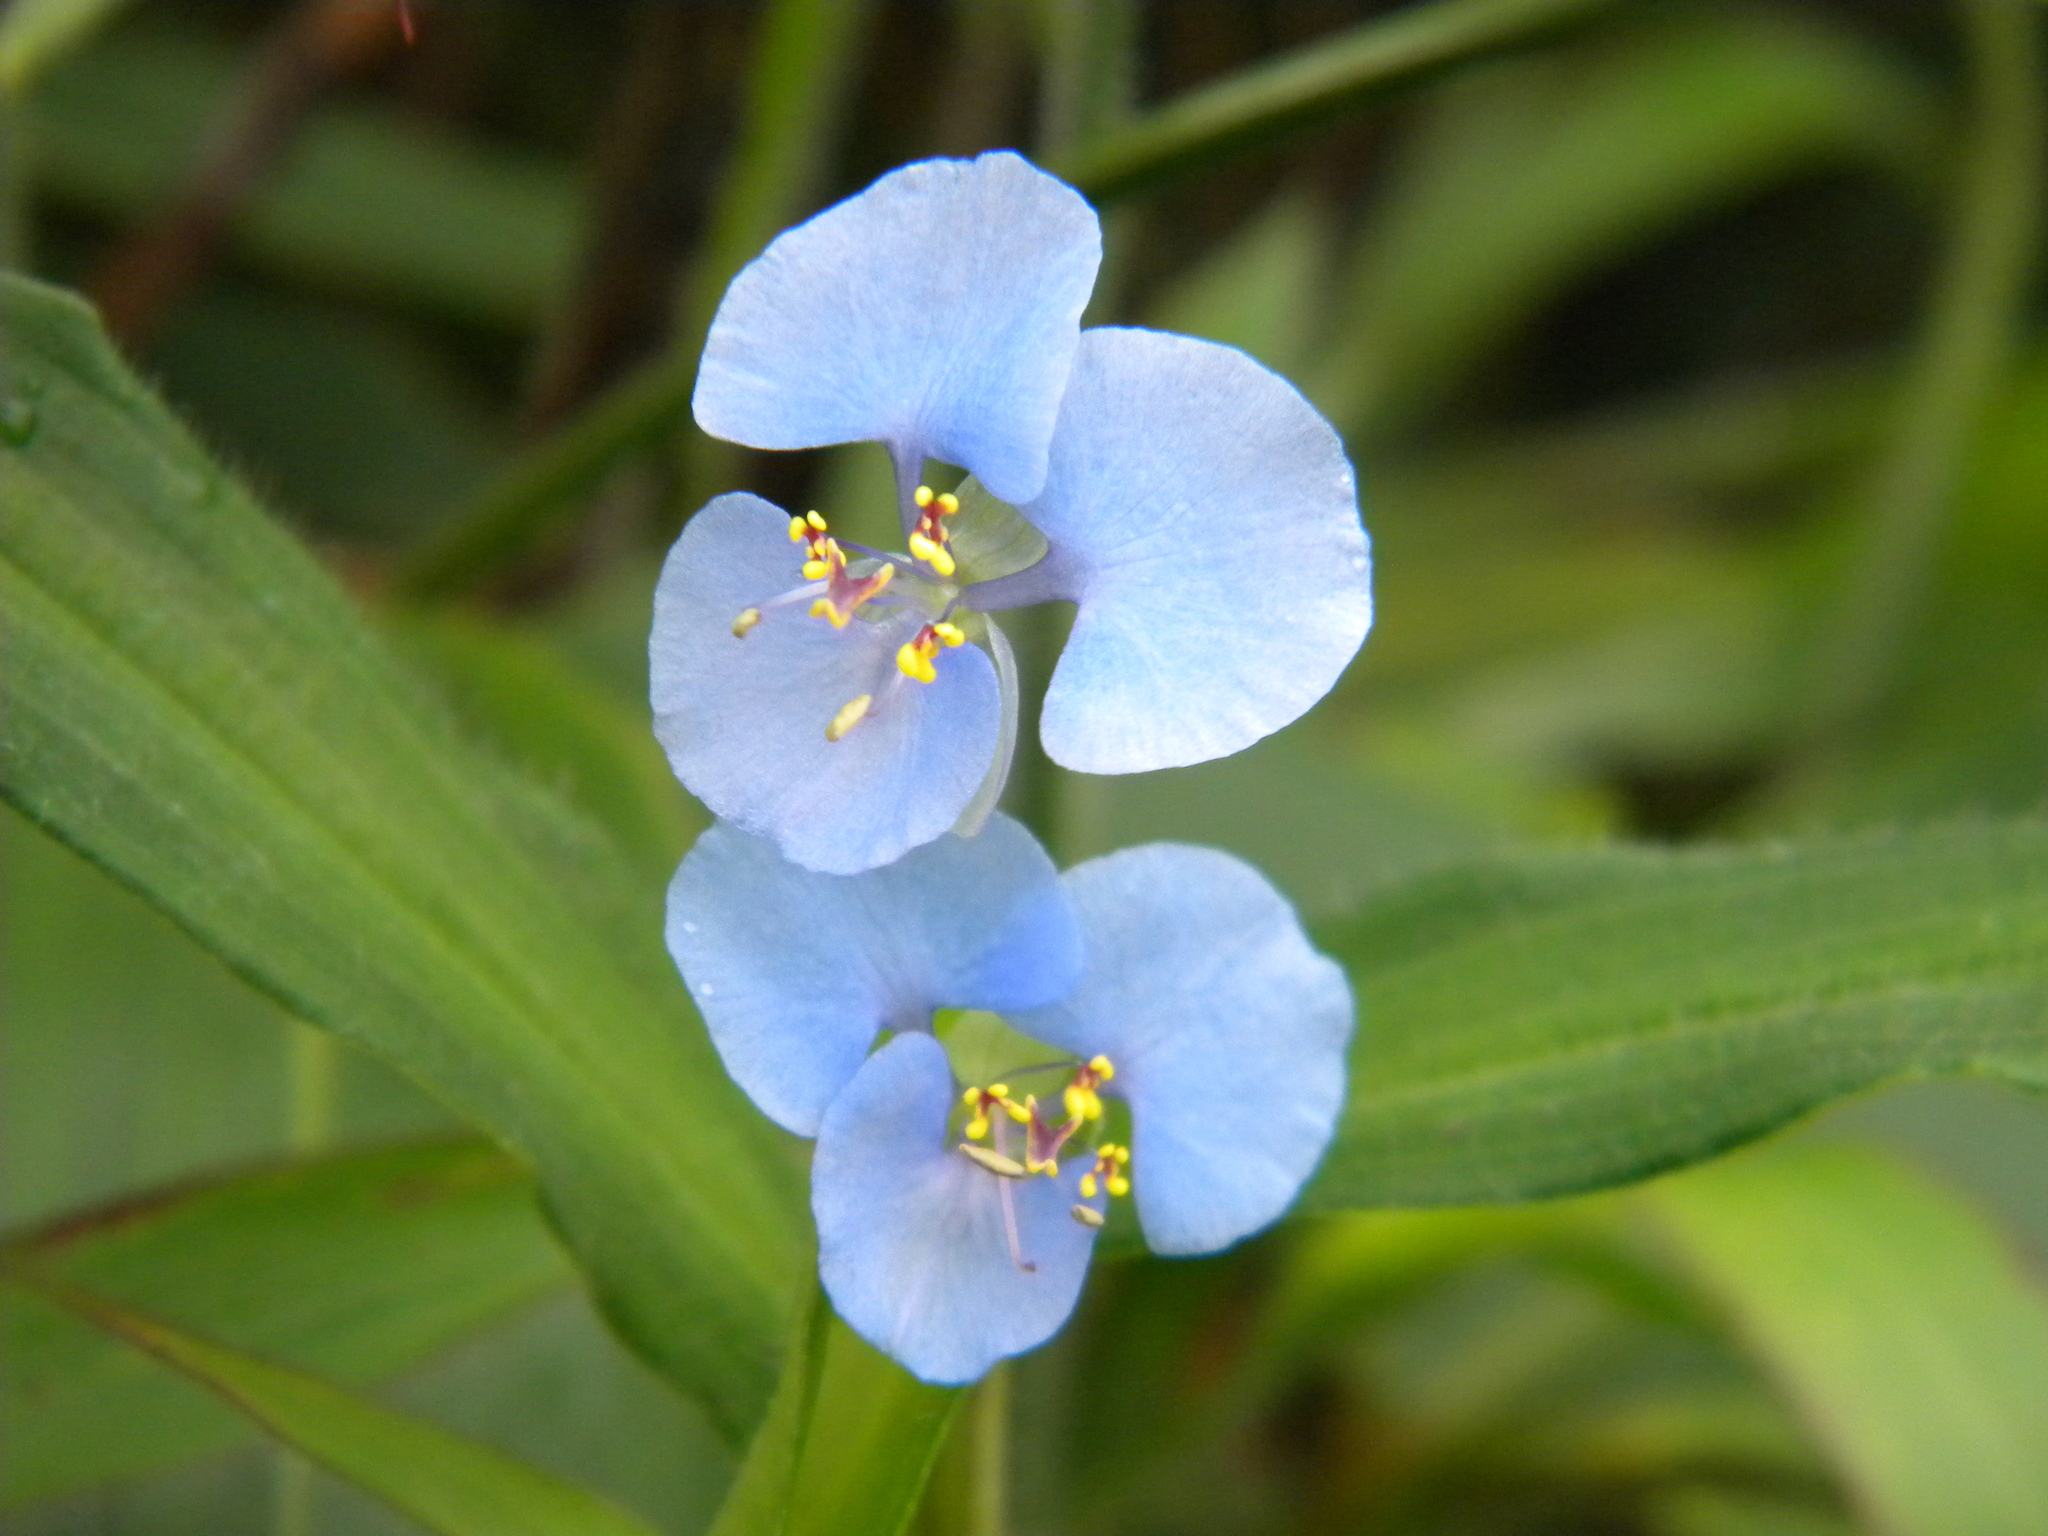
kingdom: Plantae
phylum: Tracheophyta
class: Liliopsida
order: Commelinales
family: Commelinaceae
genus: Commelina
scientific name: Commelina diffusa
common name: Climbing dayflower
